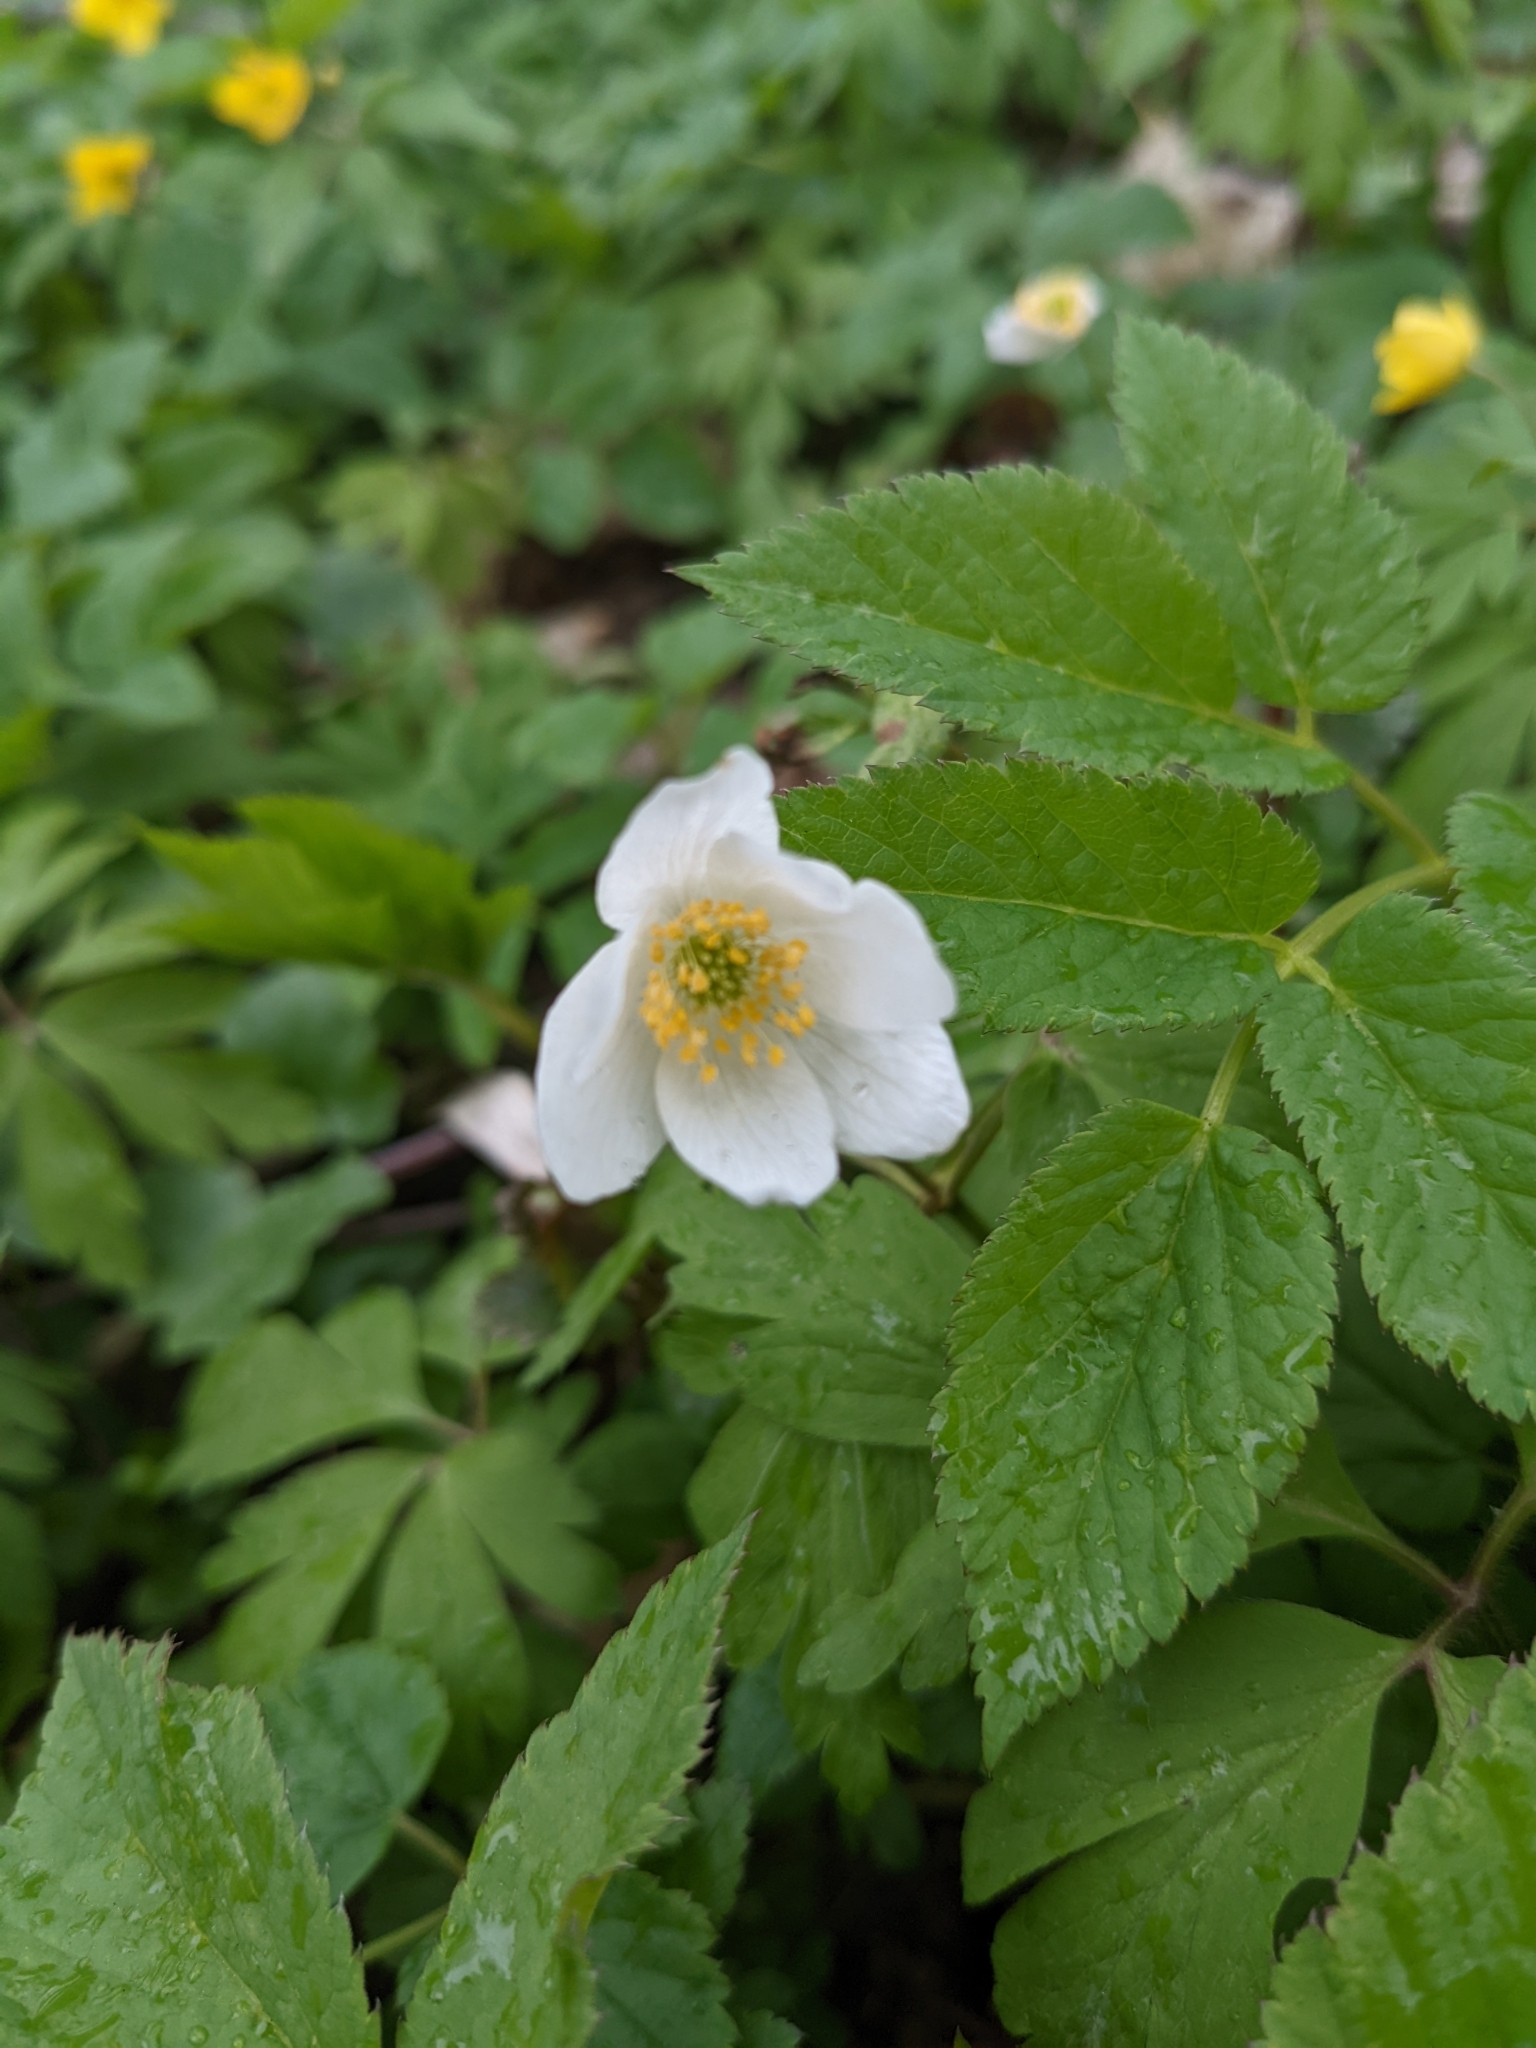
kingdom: Plantae
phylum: Tracheophyta
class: Magnoliopsida
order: Ranunculales
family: Ranunculaceae
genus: Anemone
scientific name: Anemone nemorosa
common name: Wood anemone
